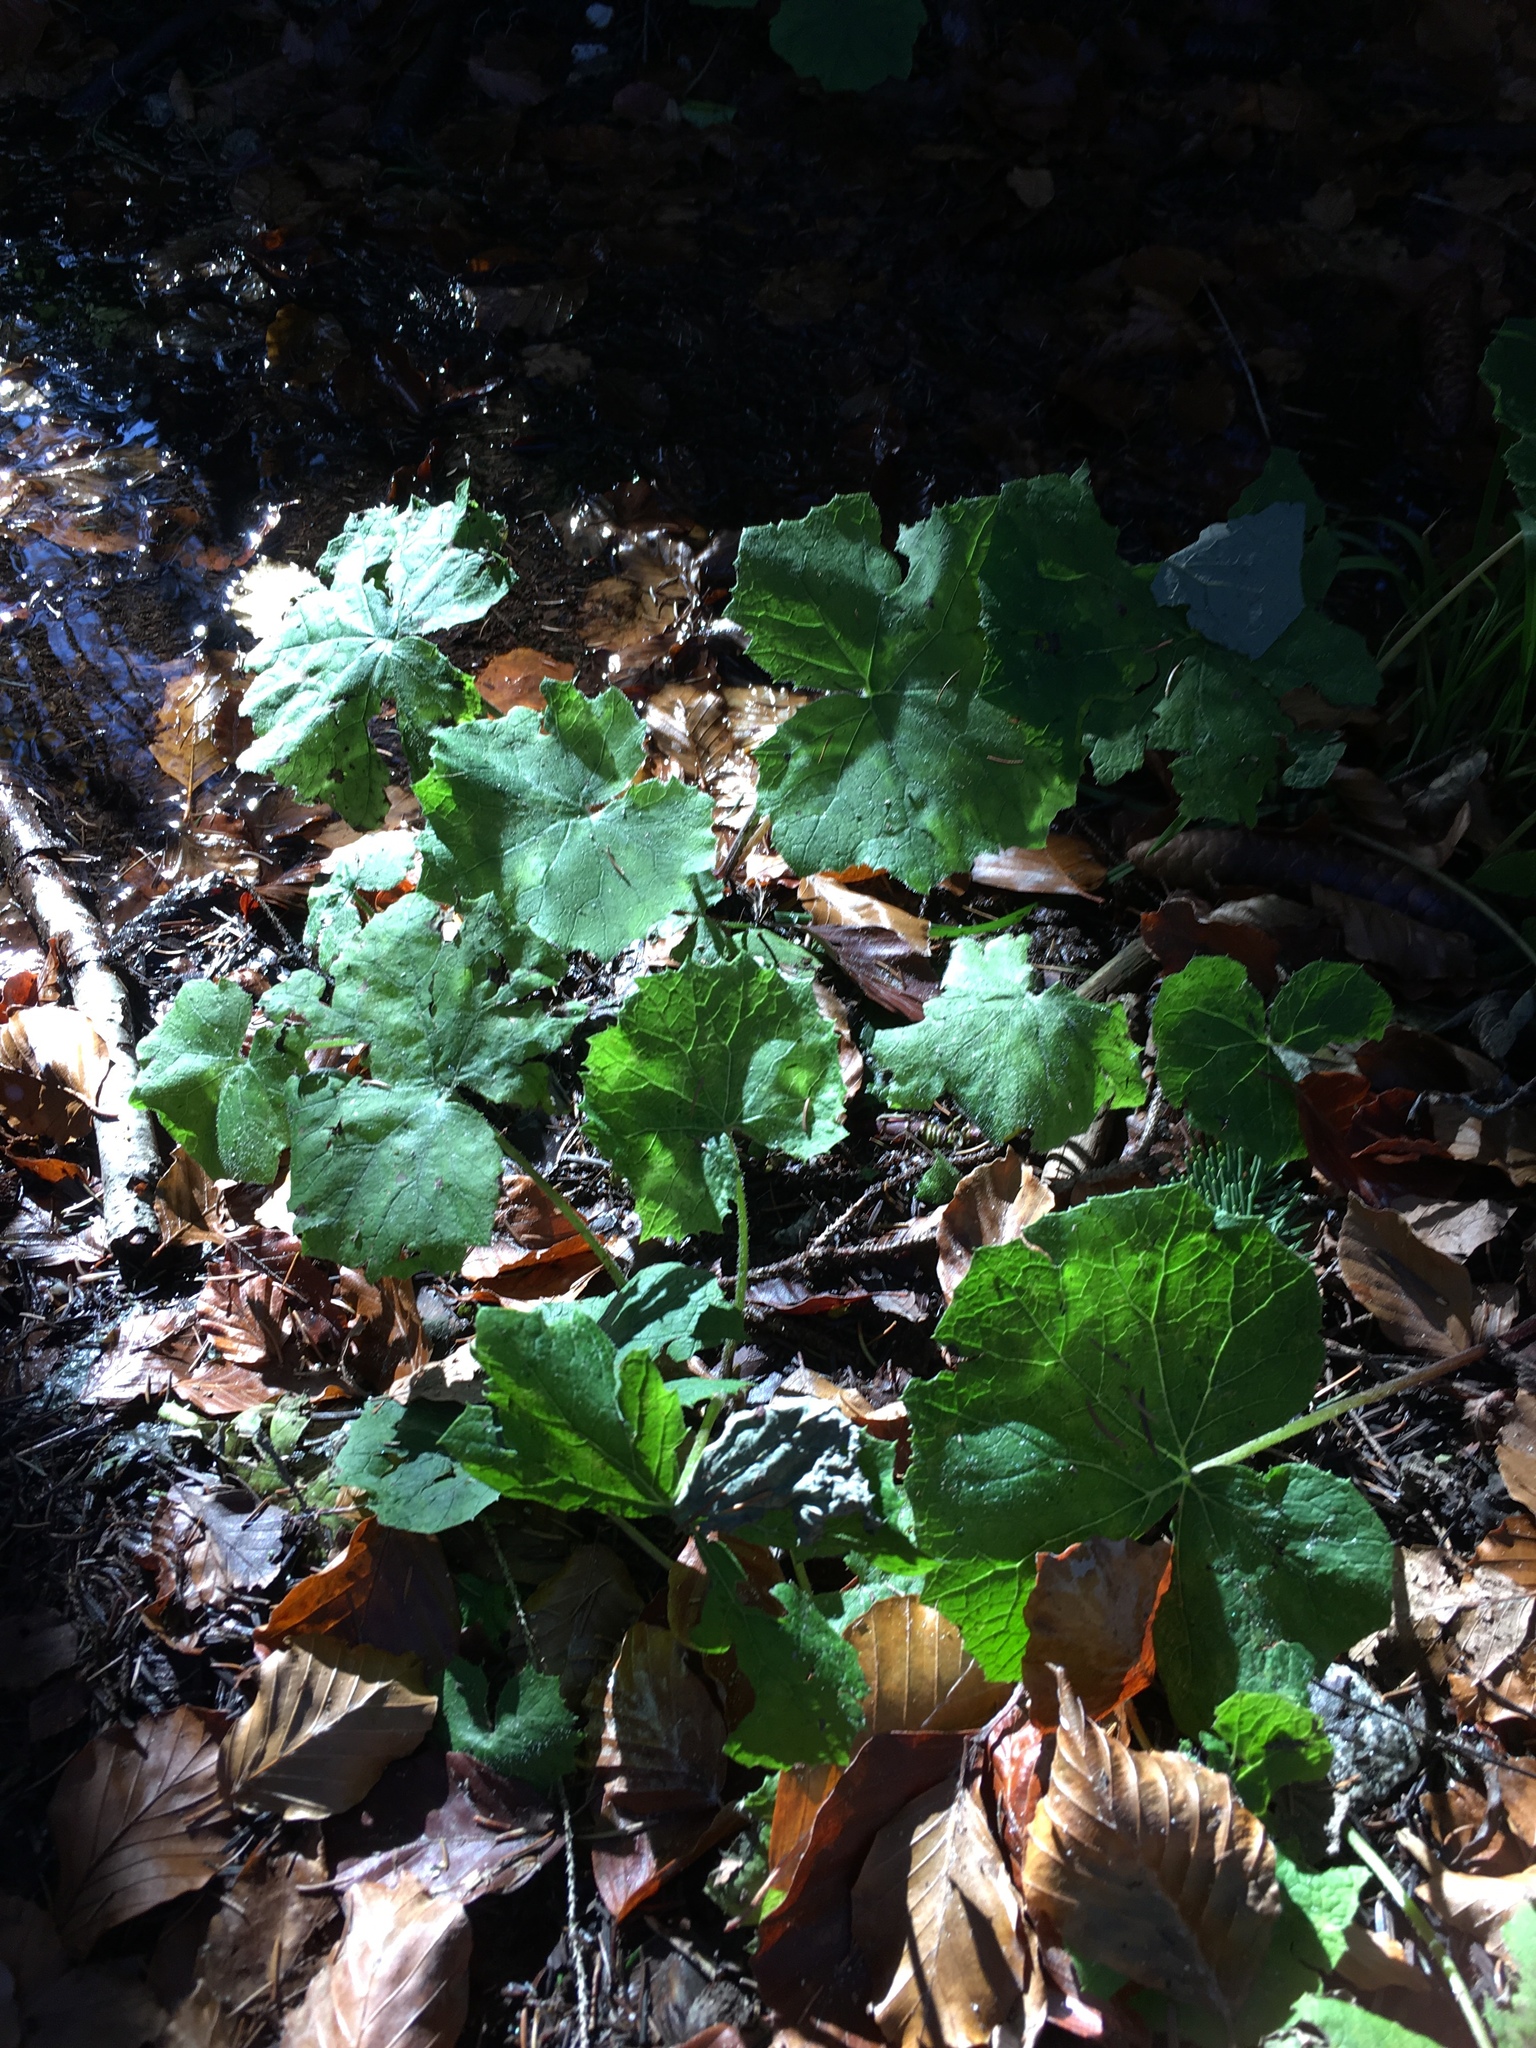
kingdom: Plantae
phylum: Tracheophyta
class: Magnoliopsida
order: Saxifragales
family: Saxifragaceae
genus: Chrysosplenium
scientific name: Chrysosplenium alternifolium
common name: Alternate-leaved golden-saxifrage
